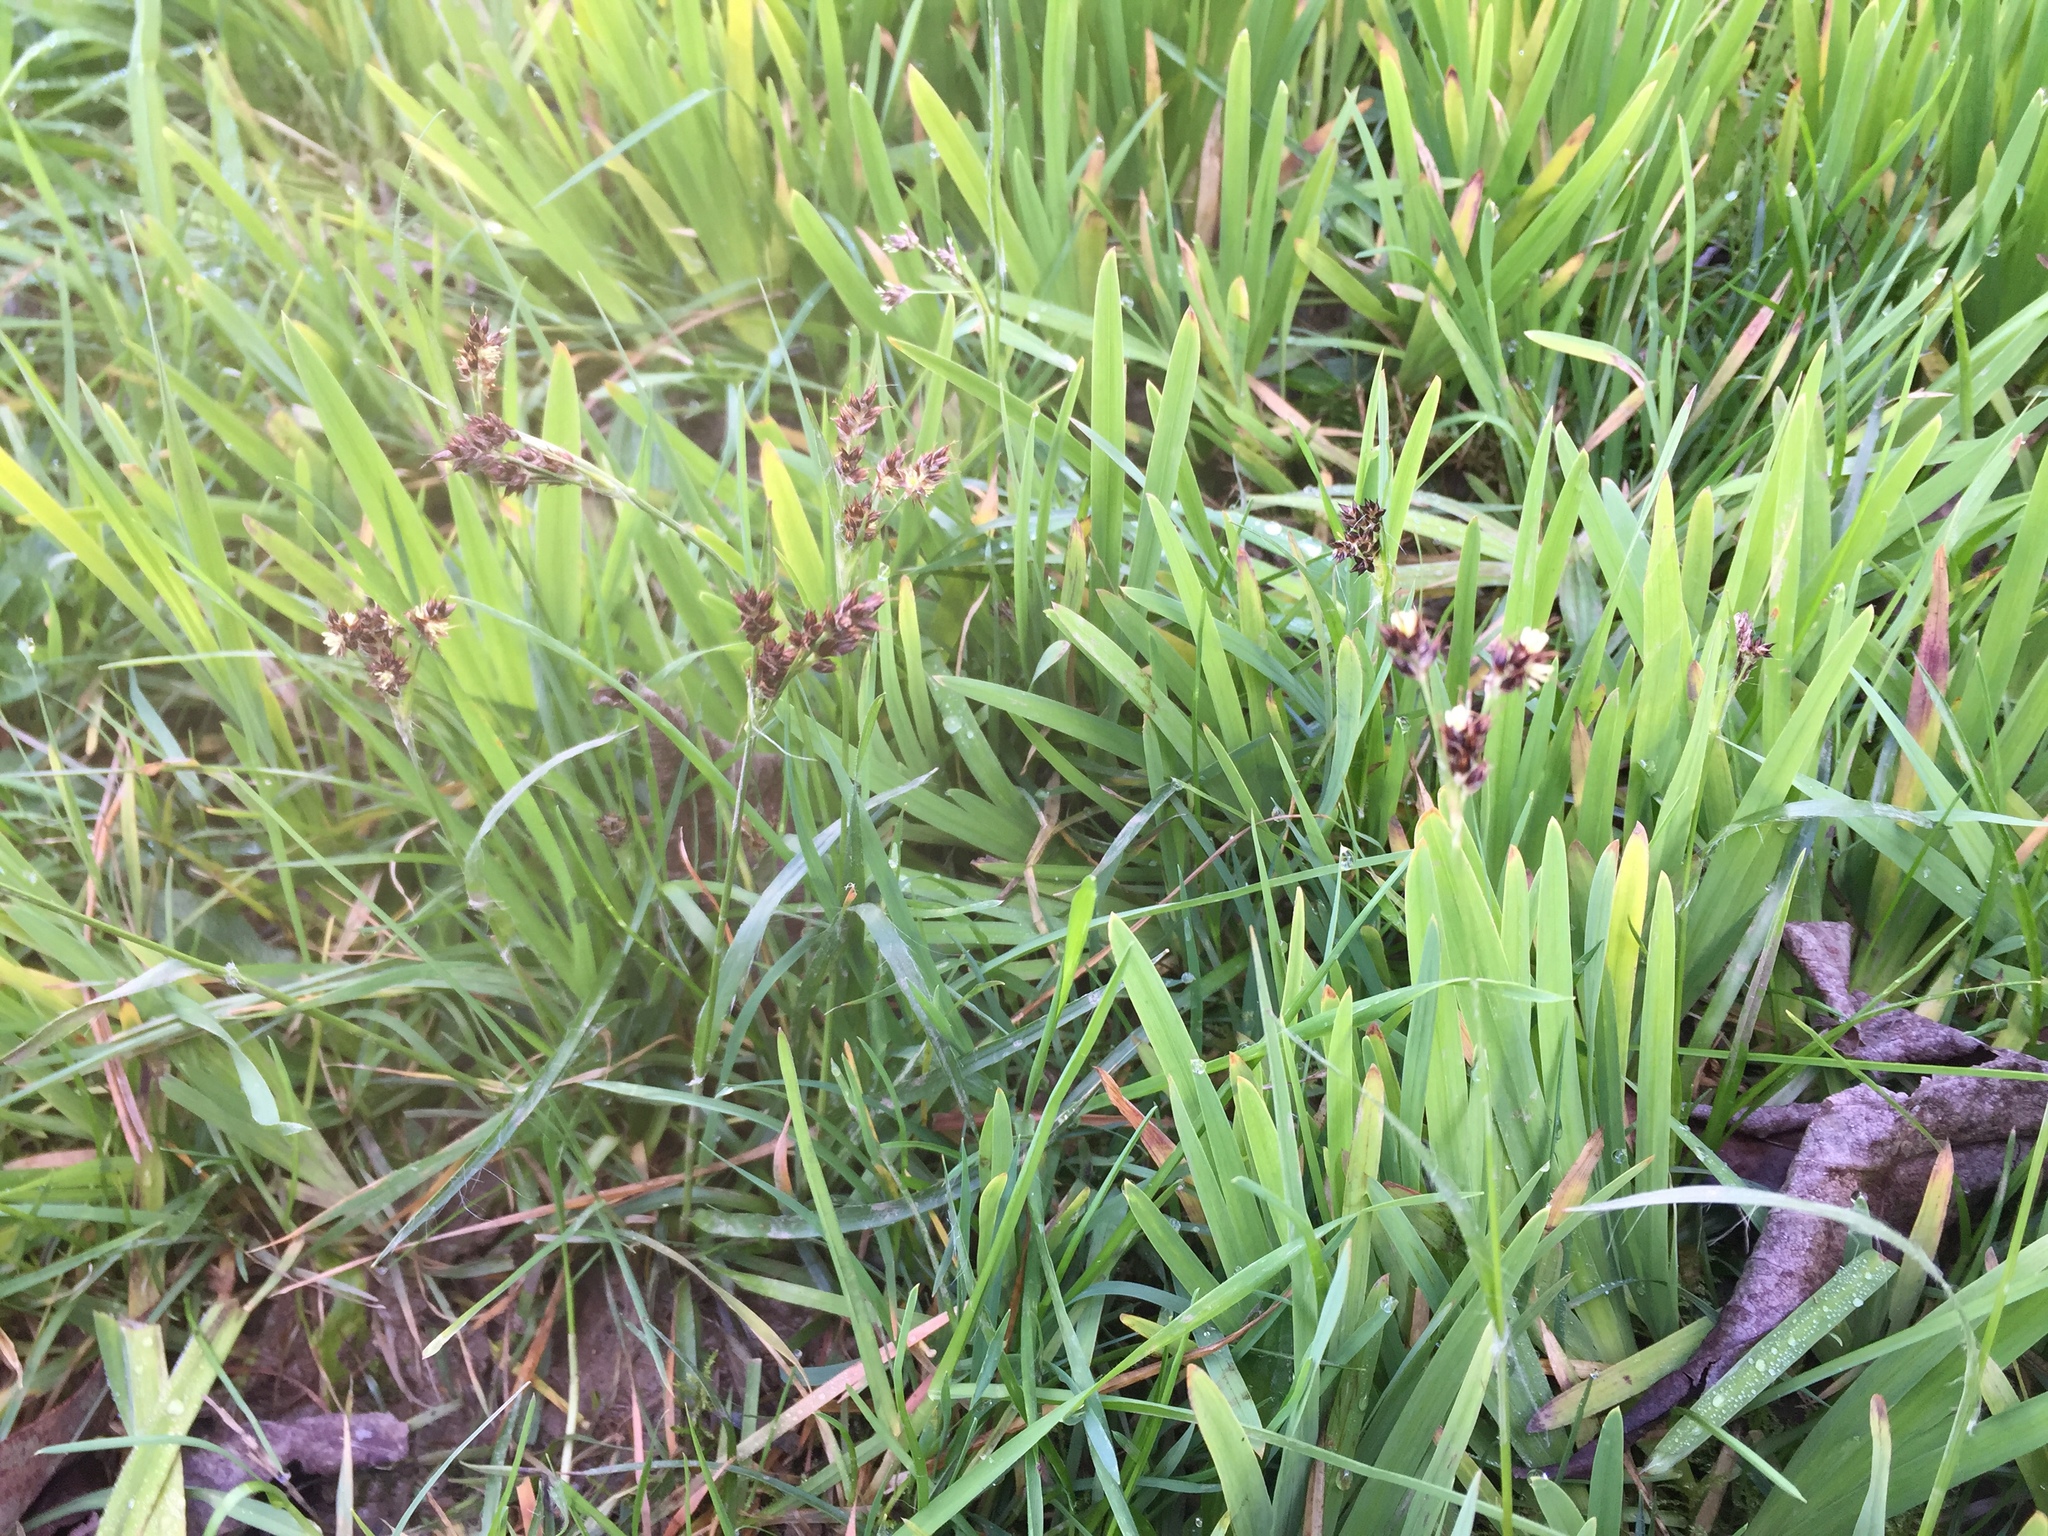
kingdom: Plantae
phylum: Tracheophyta
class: Liliopsida
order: Poales
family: Juncaceae
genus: Luzula
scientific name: Luzula multiflora
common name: Heath wood-rush
